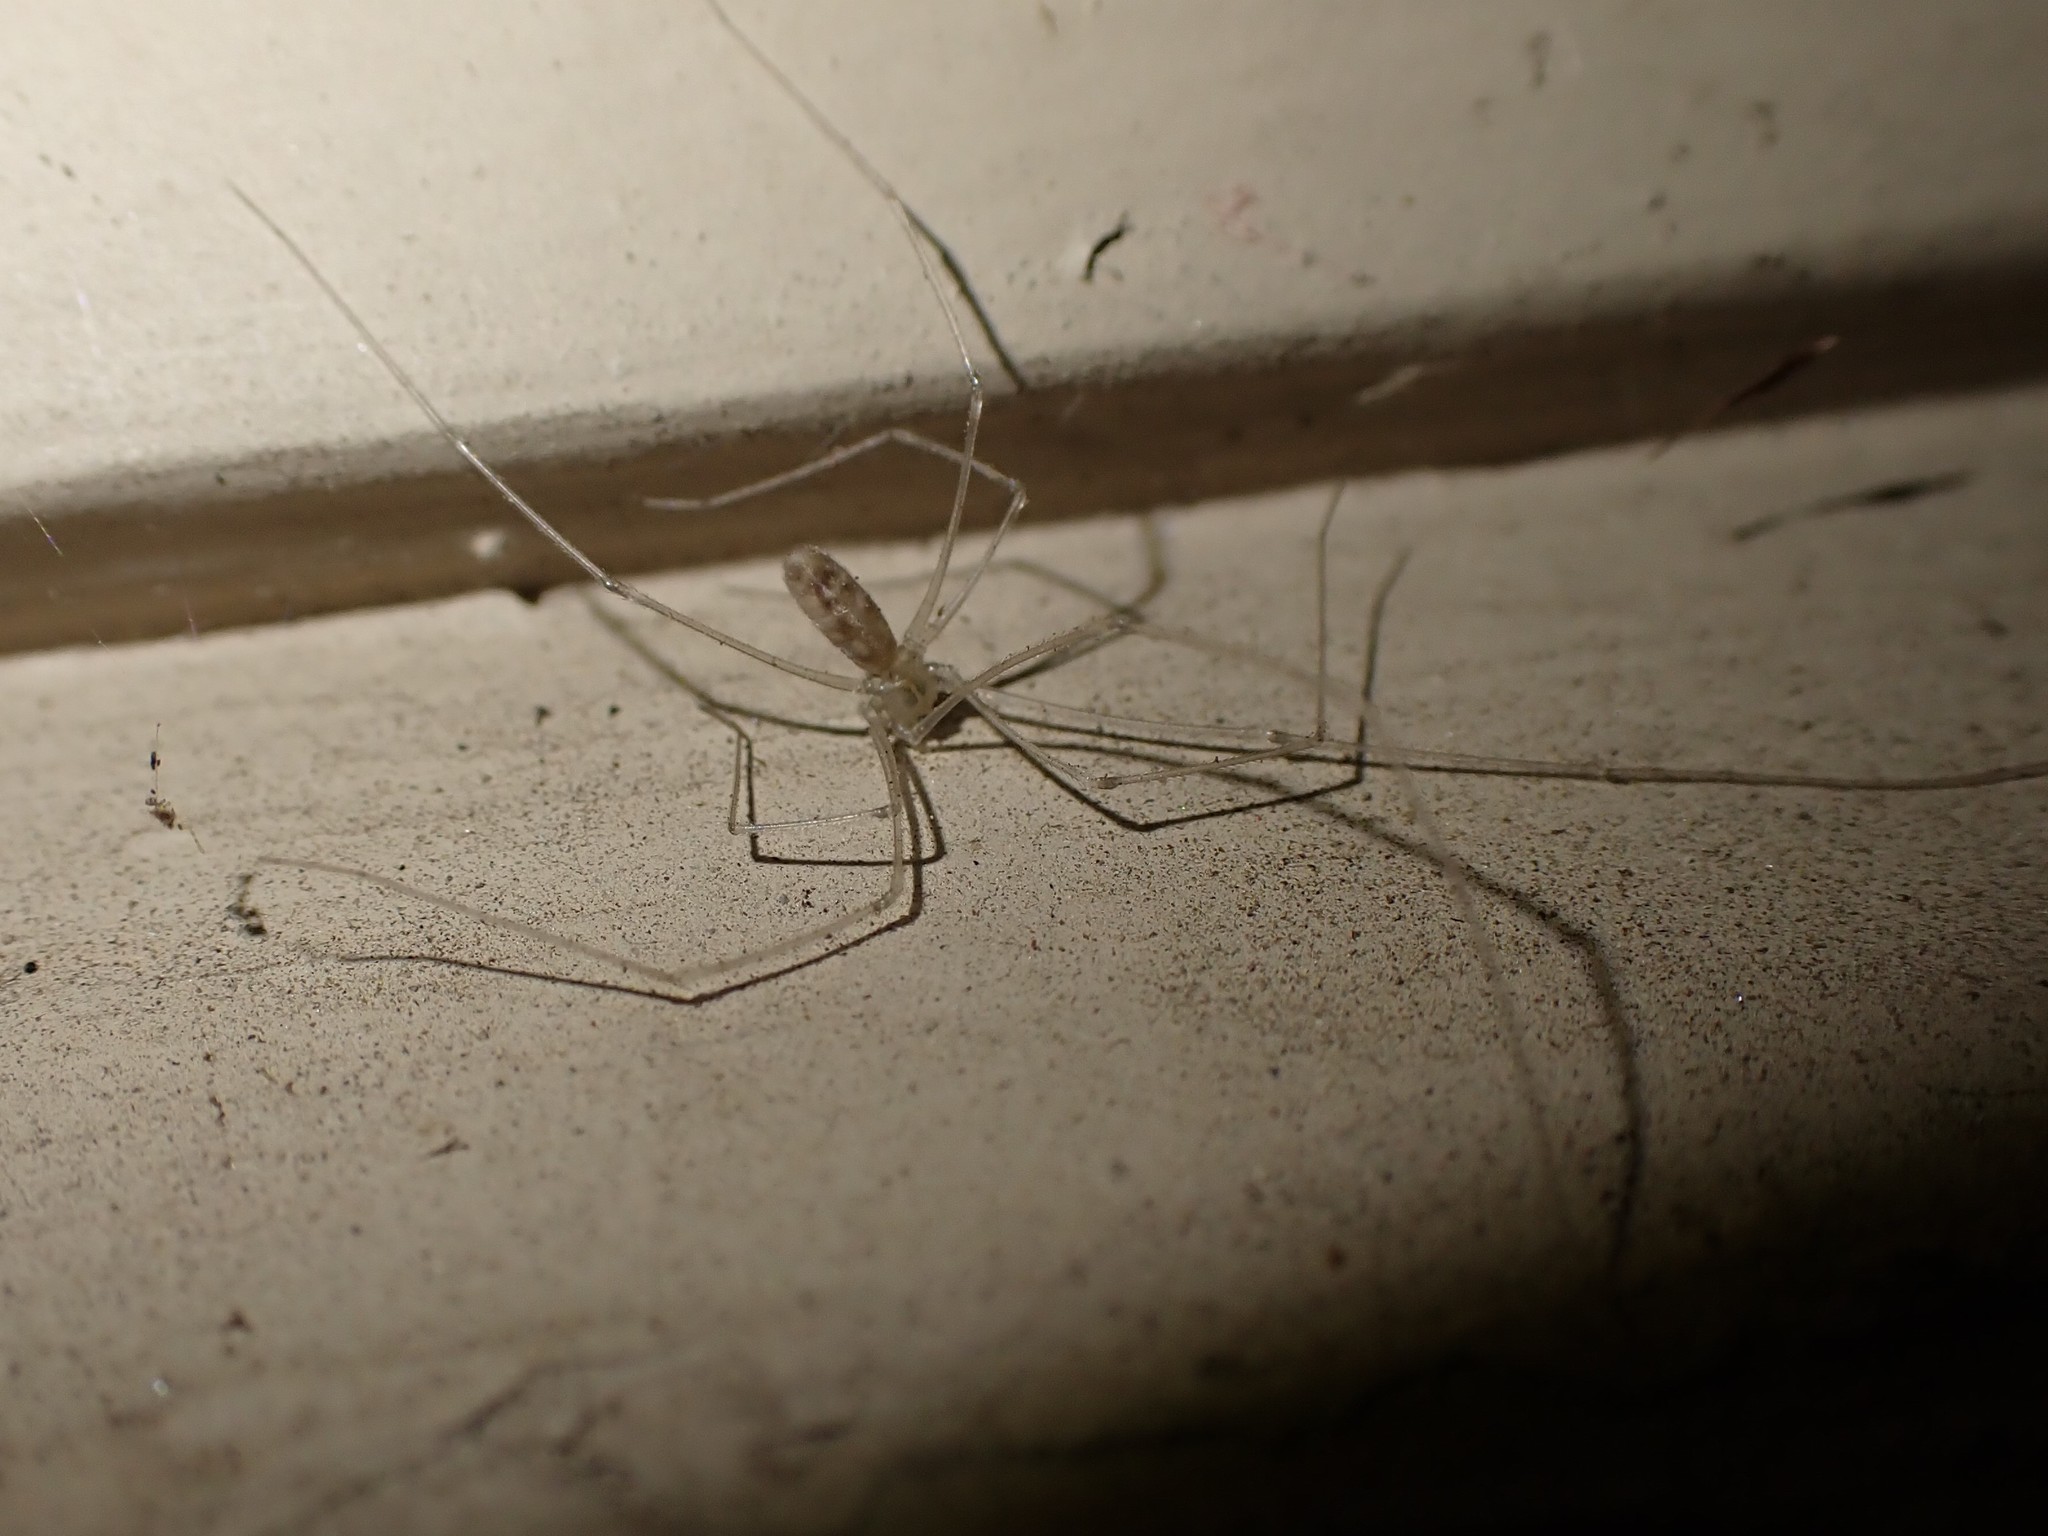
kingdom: Animalia
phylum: Arthropoda
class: Arachnida
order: Araneae
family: Pholcidae
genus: Pholcus
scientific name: Pholcus phalangioides
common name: Longbodied cellar spider
